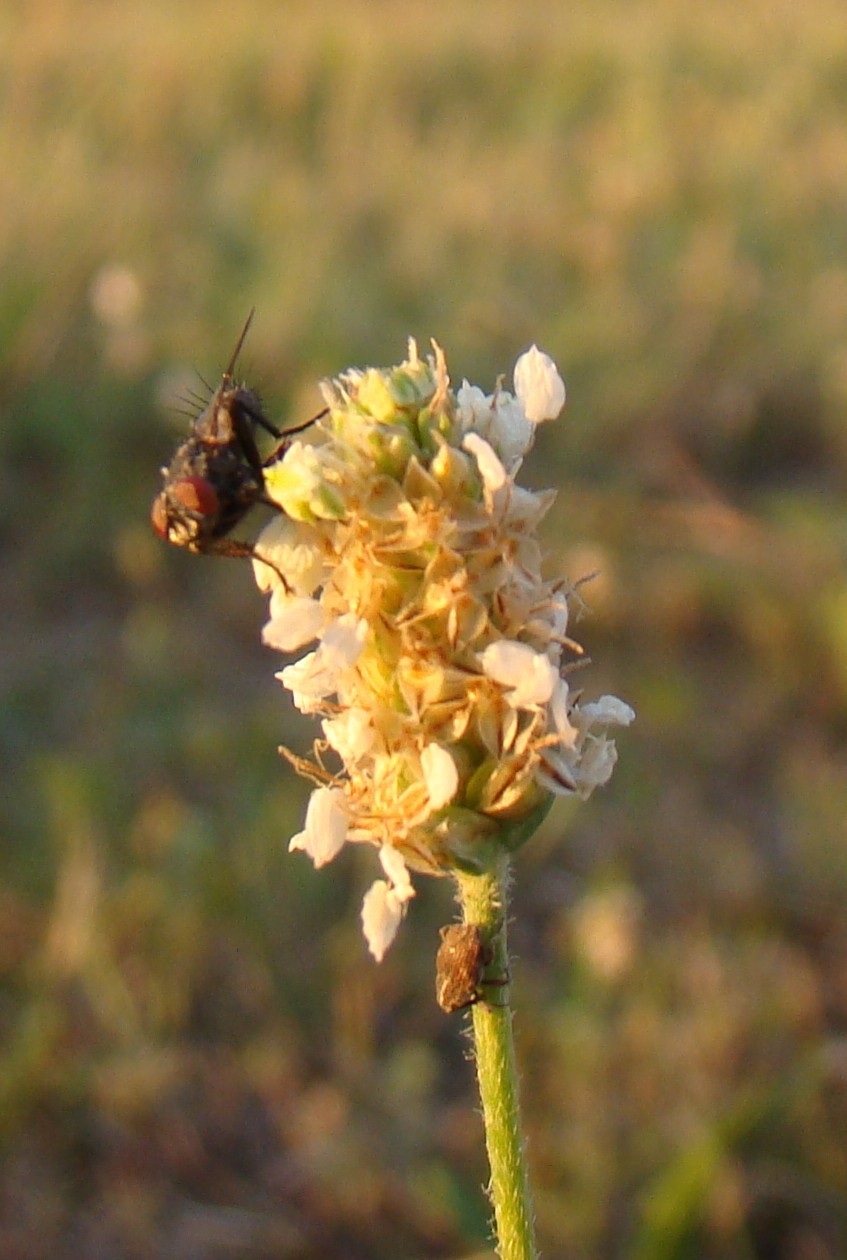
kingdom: Plantae
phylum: Tracheophyta
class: Magnoliopsida
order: Lamiales
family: Plantaginaceae
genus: Plantago
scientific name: Plantago lanceolata
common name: Ribwort plantain
